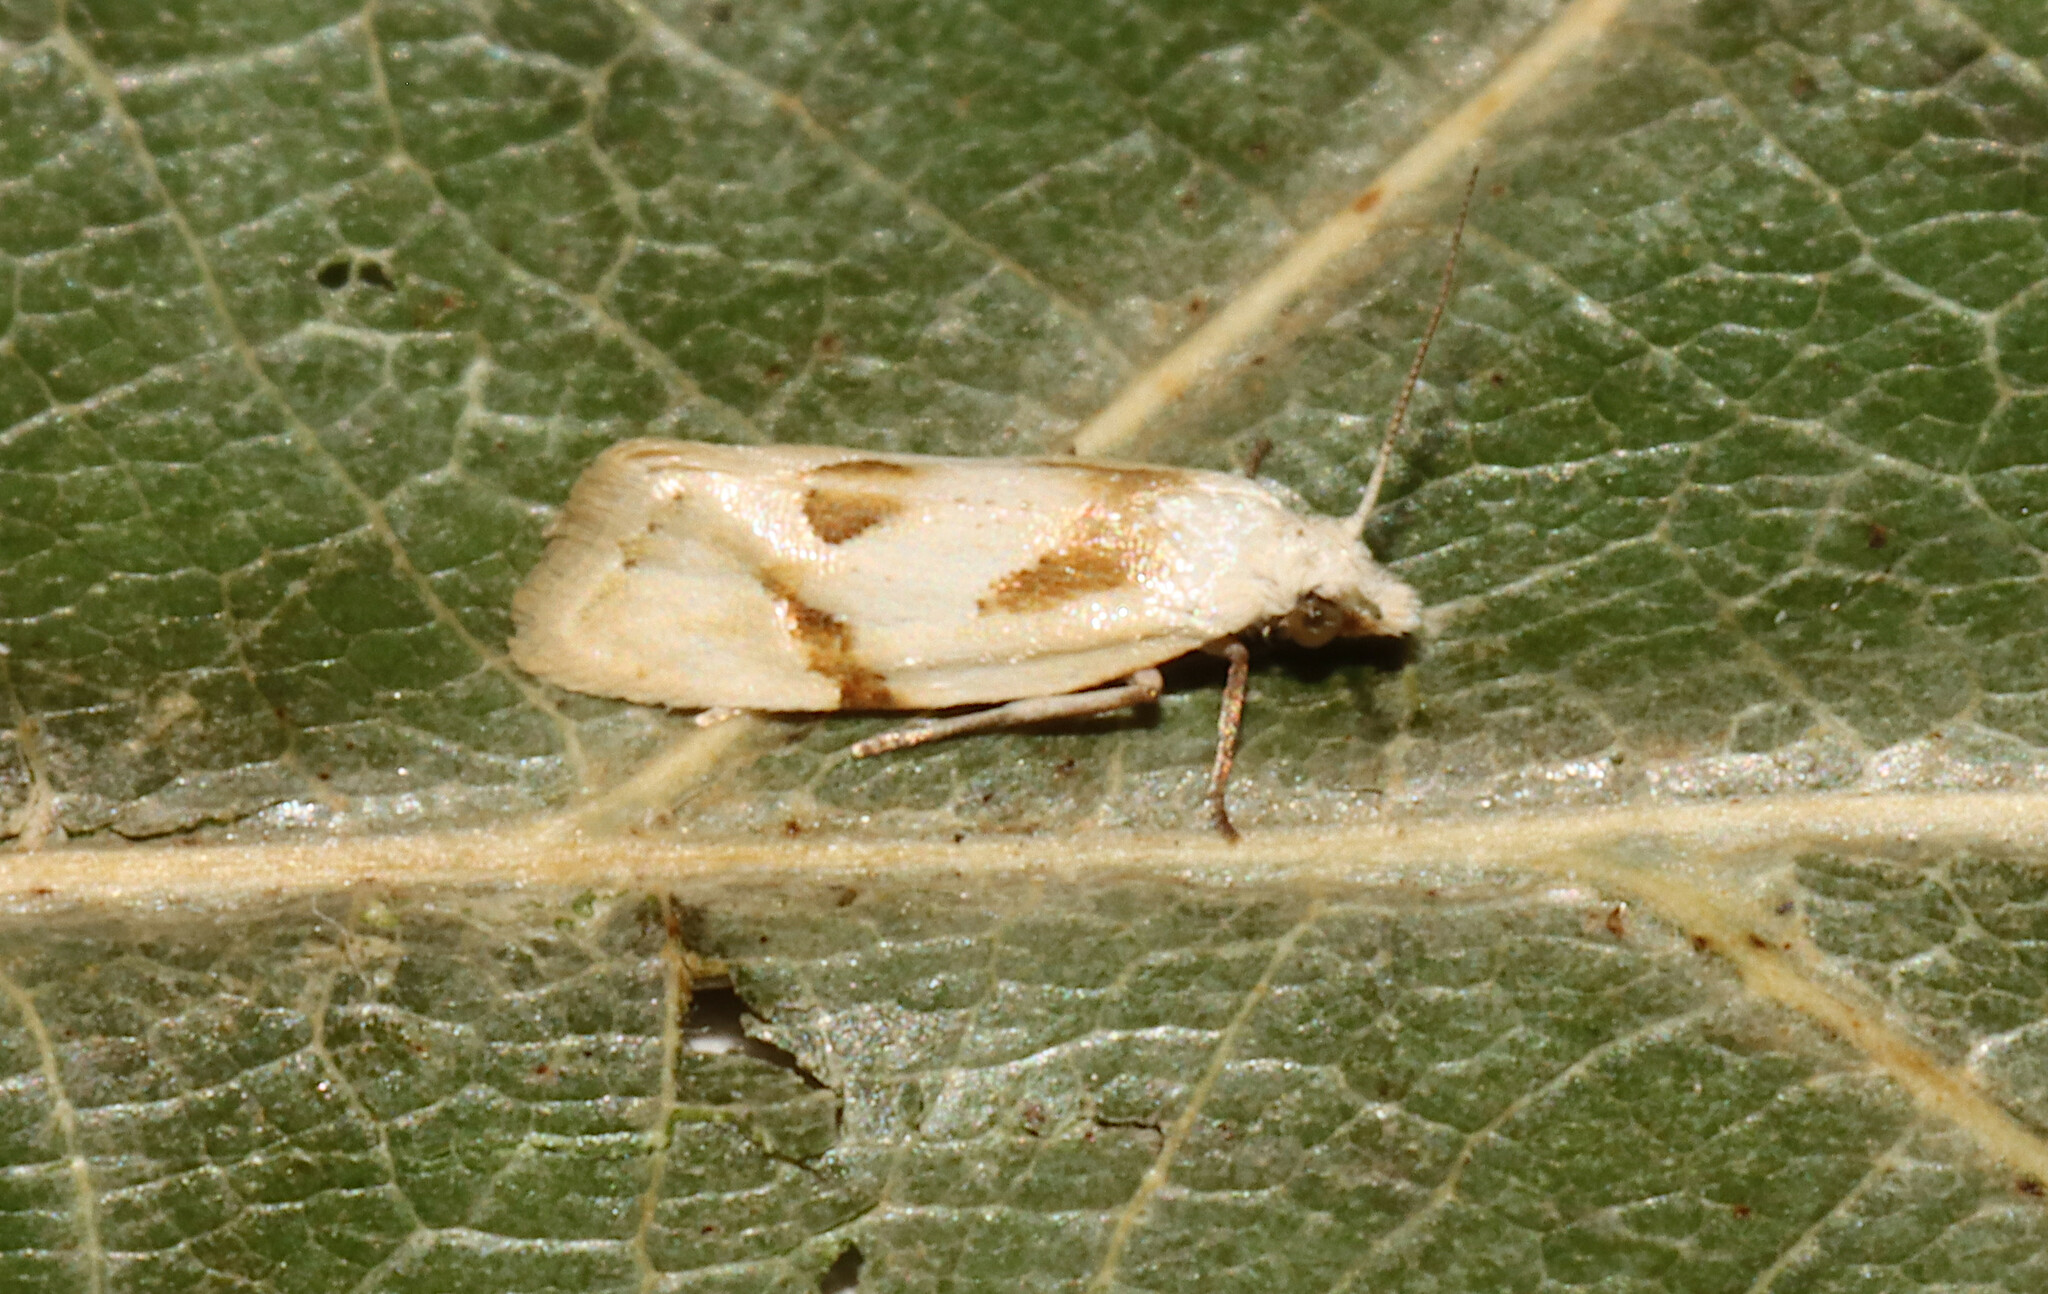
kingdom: Animalia
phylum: Arthropoda
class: Insecta
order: Lepidoptera
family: Tortricidae
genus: Aethes
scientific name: Aethes seriatana
